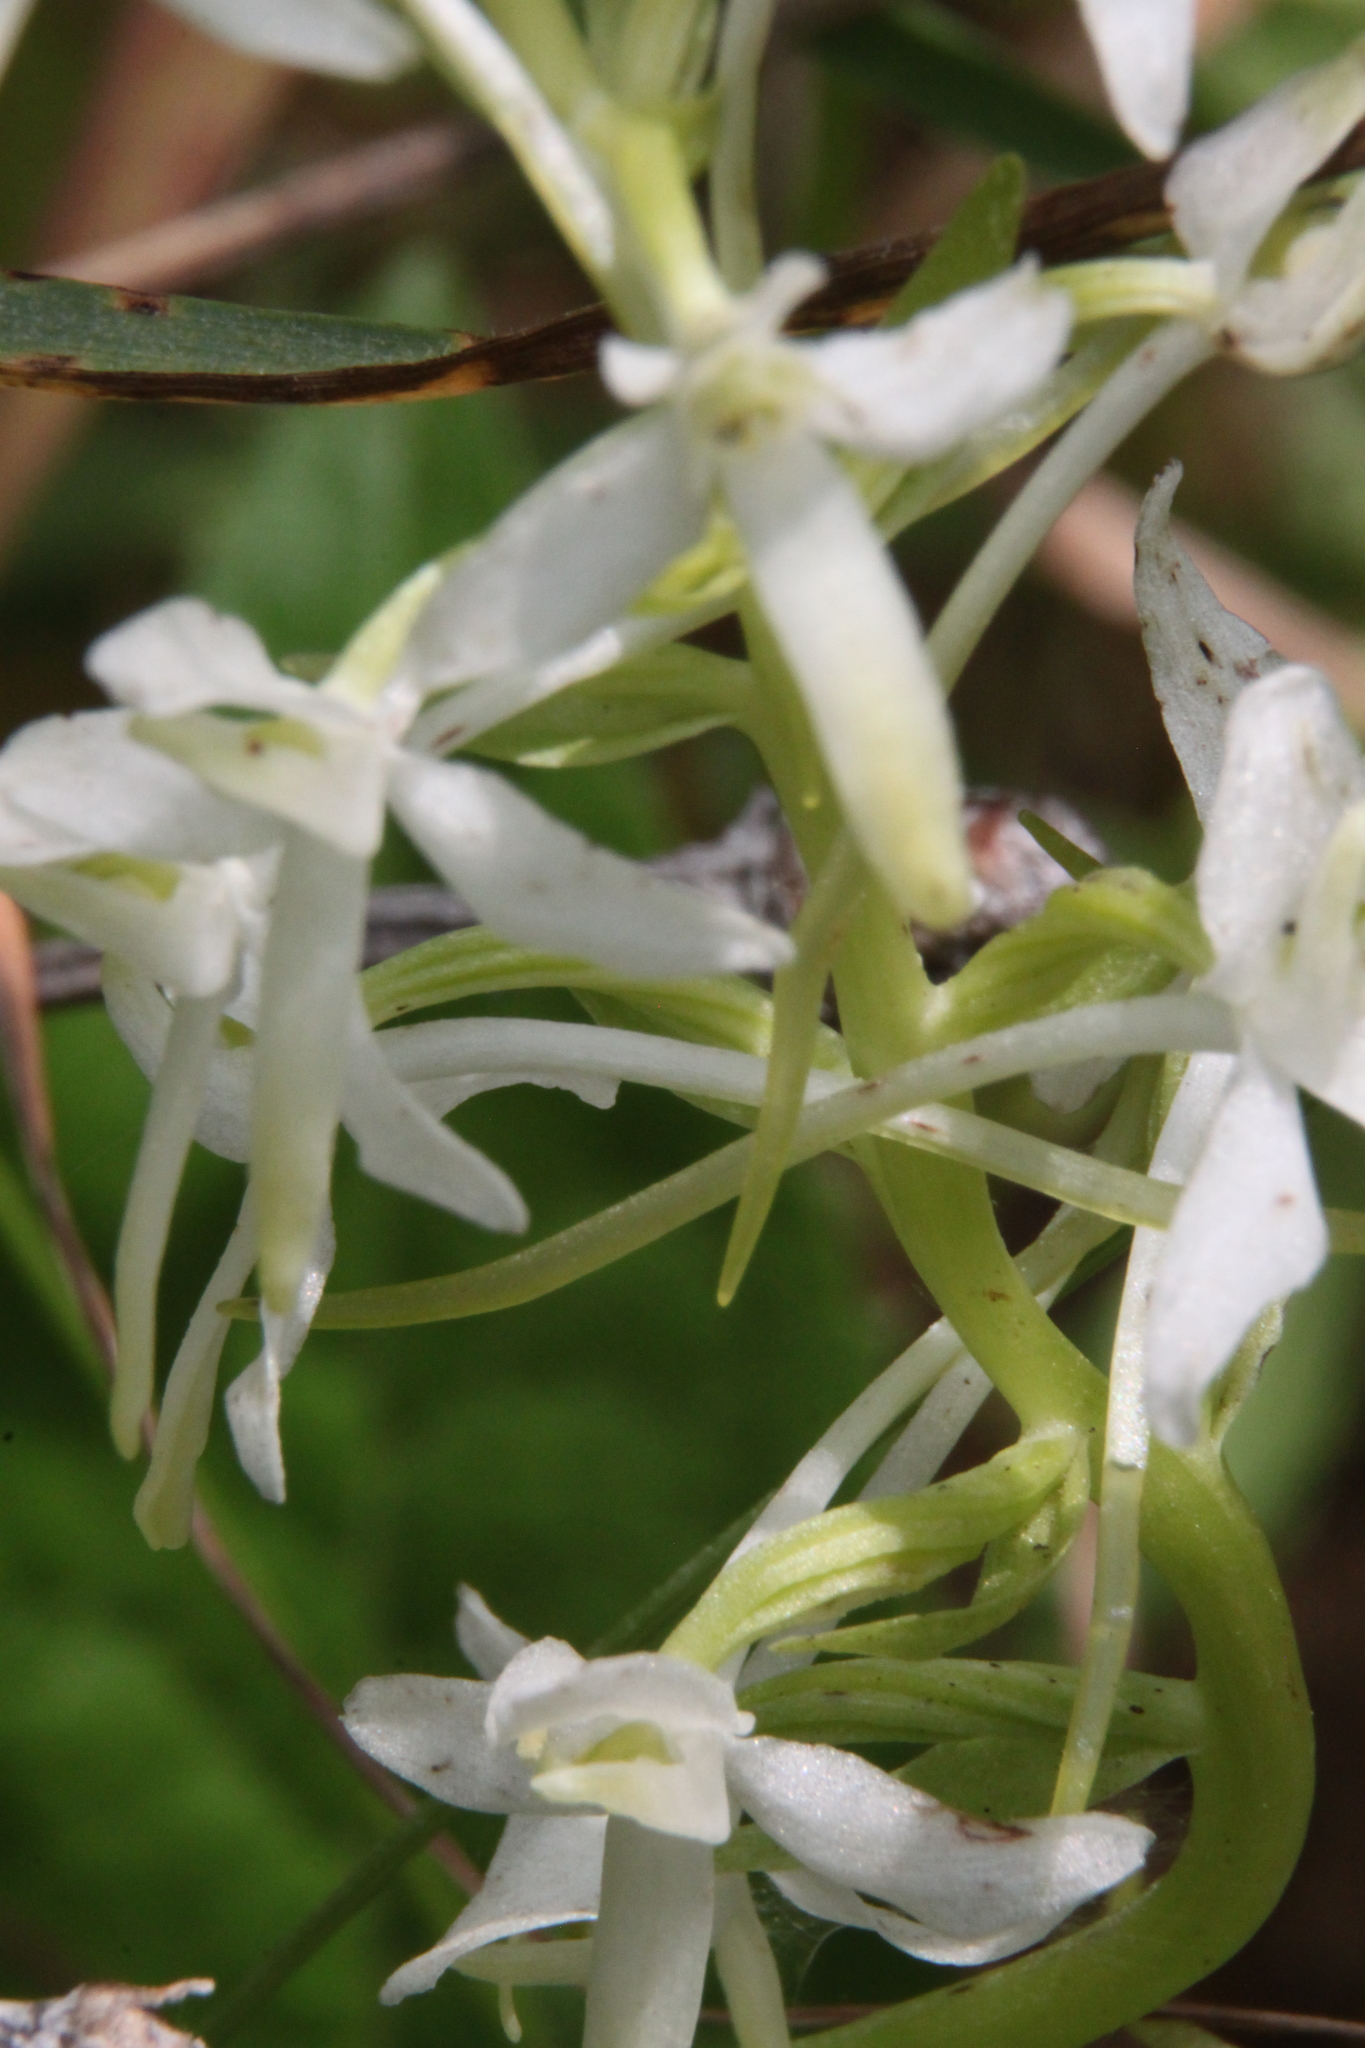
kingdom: Plantae
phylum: Tracheophyta
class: Liliopsida
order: Asparagales
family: Orchidaceae
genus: Platanthera
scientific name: Platanthera bifolia
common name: Lesser butterfly-orchid
